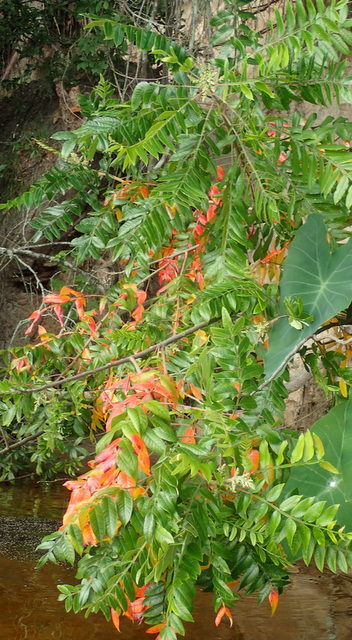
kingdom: Plantae
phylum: Tracheophyta
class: Magnoliopsida
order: Sapindales
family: Anacardiaceae
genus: Rhus
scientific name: Rhus copallina
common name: Shining sumac
